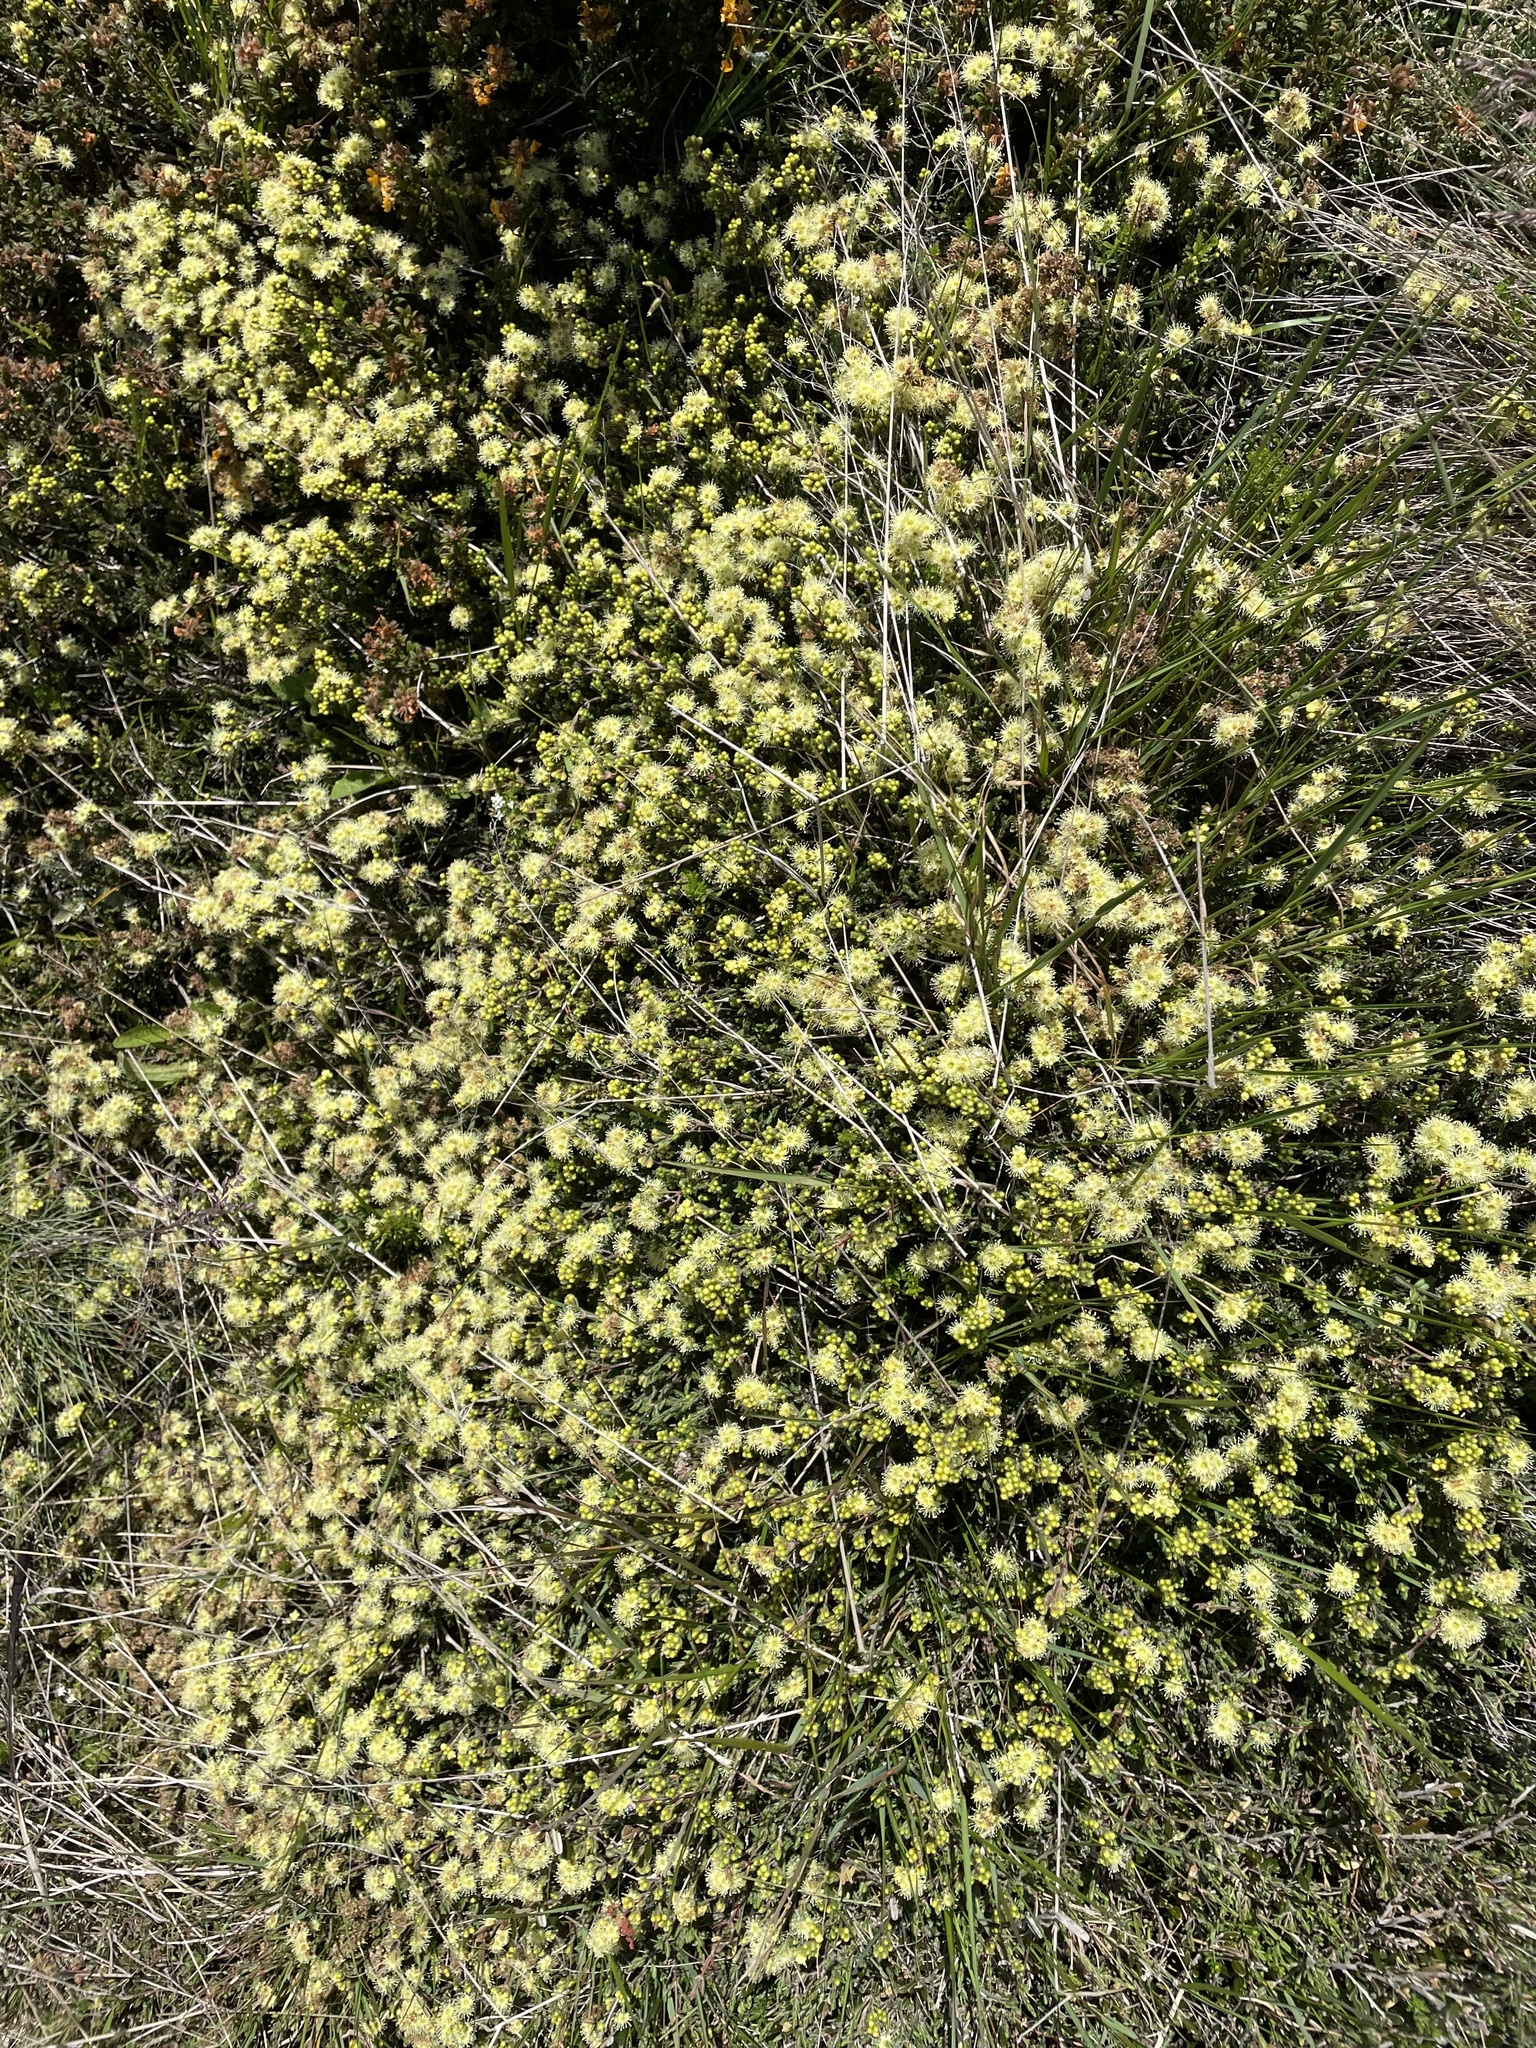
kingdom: Plantae
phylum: Tracheophyta
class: Magnoliopsida
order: Myrtales
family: Myrtaceae
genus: Kunzea
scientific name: Kunzea muelleri
